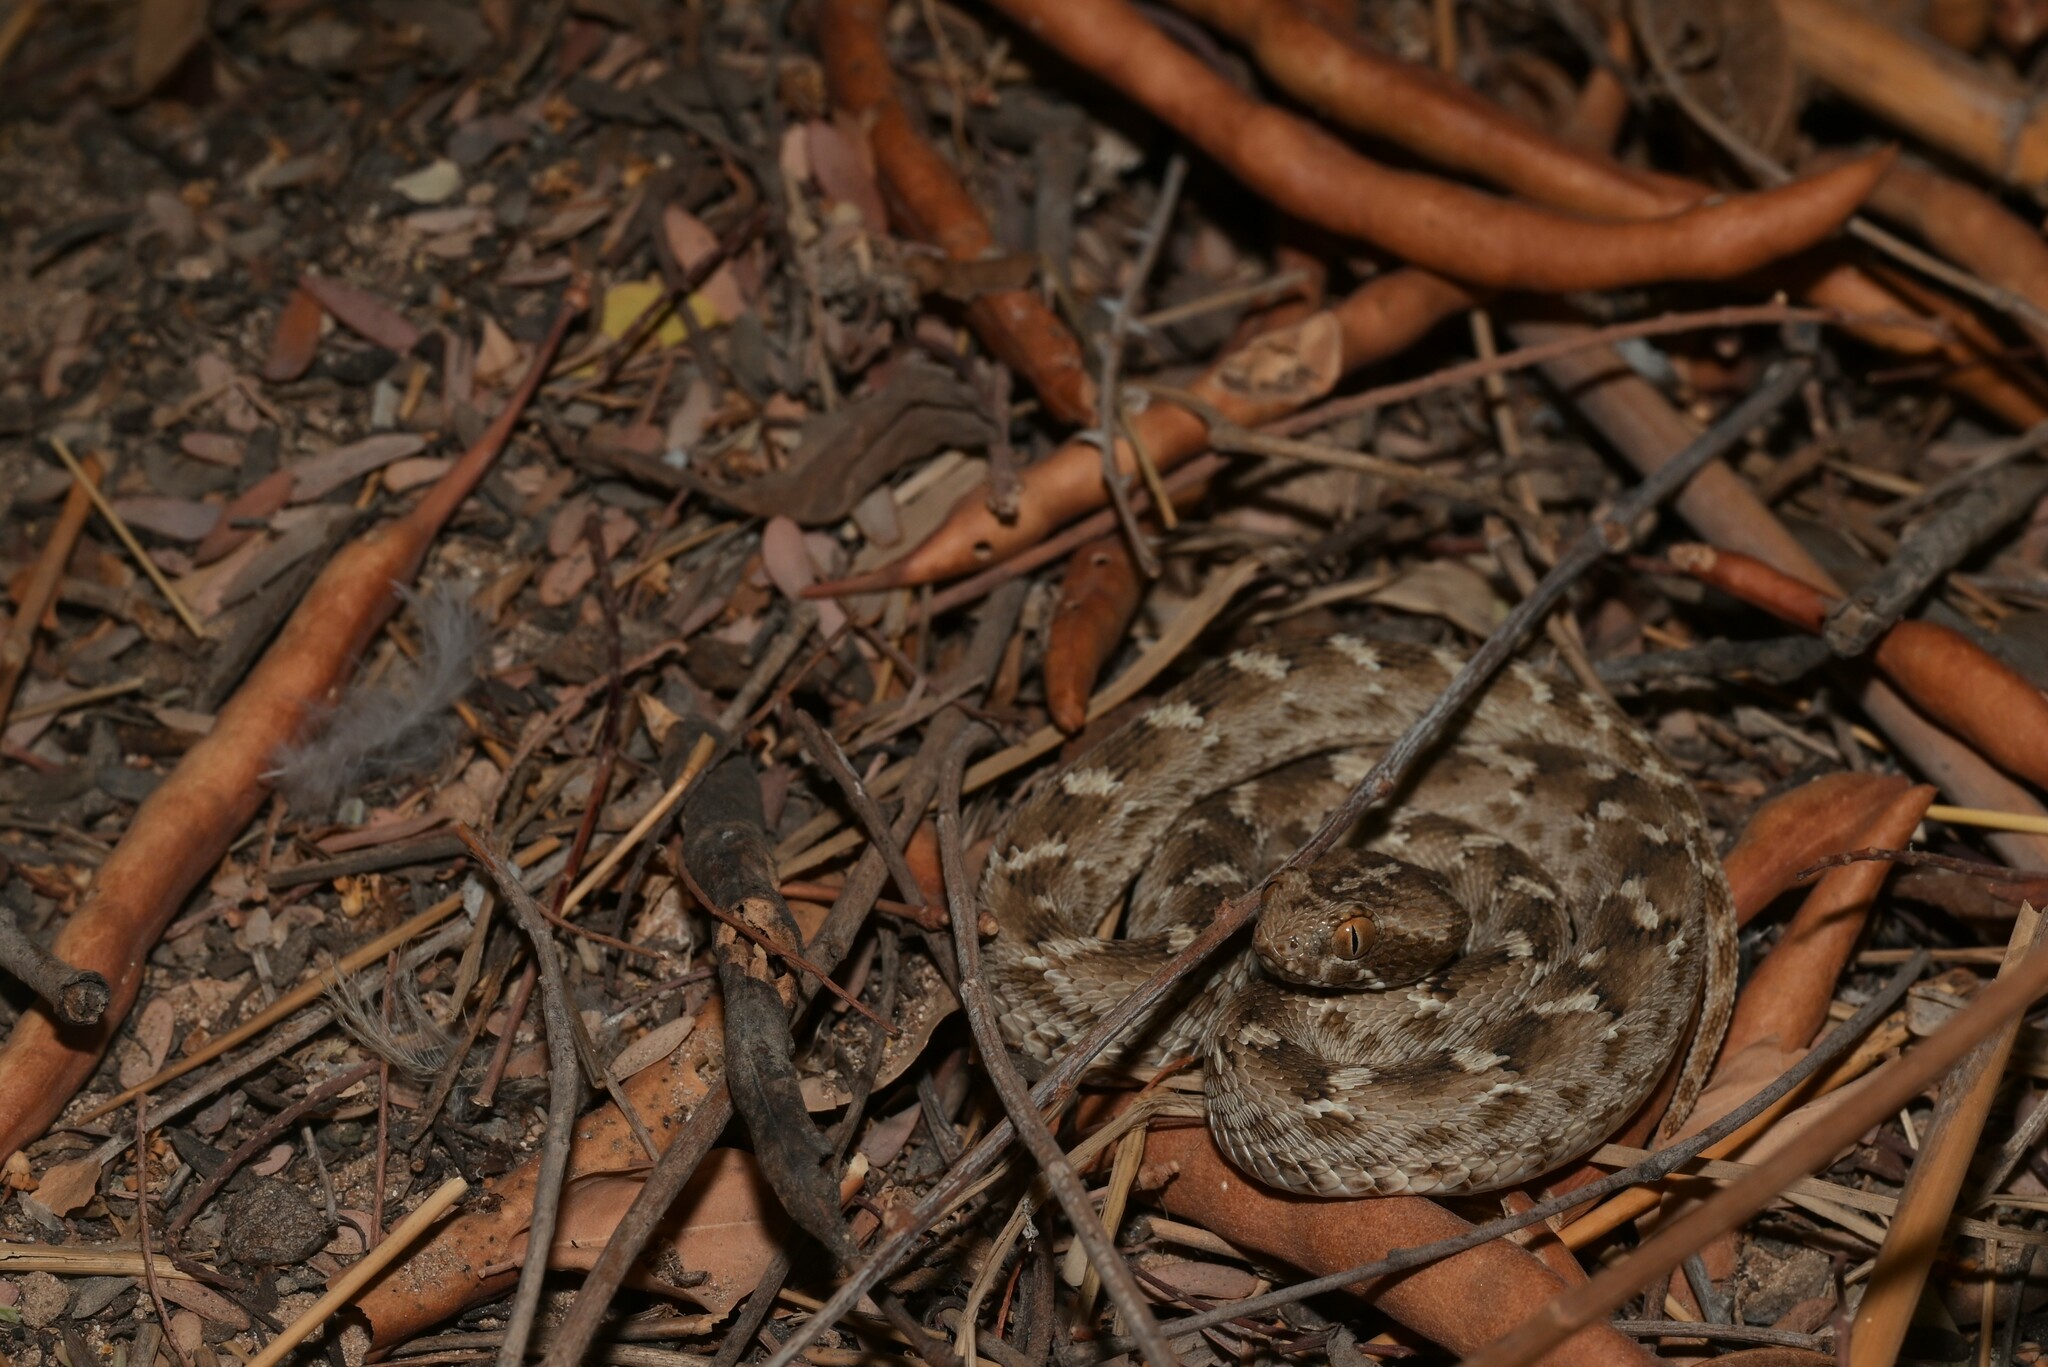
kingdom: Animalia
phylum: Chordata
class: Squamata
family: Viperidae
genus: Echis
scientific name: Echis carinatus
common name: Saw-scaled viper
